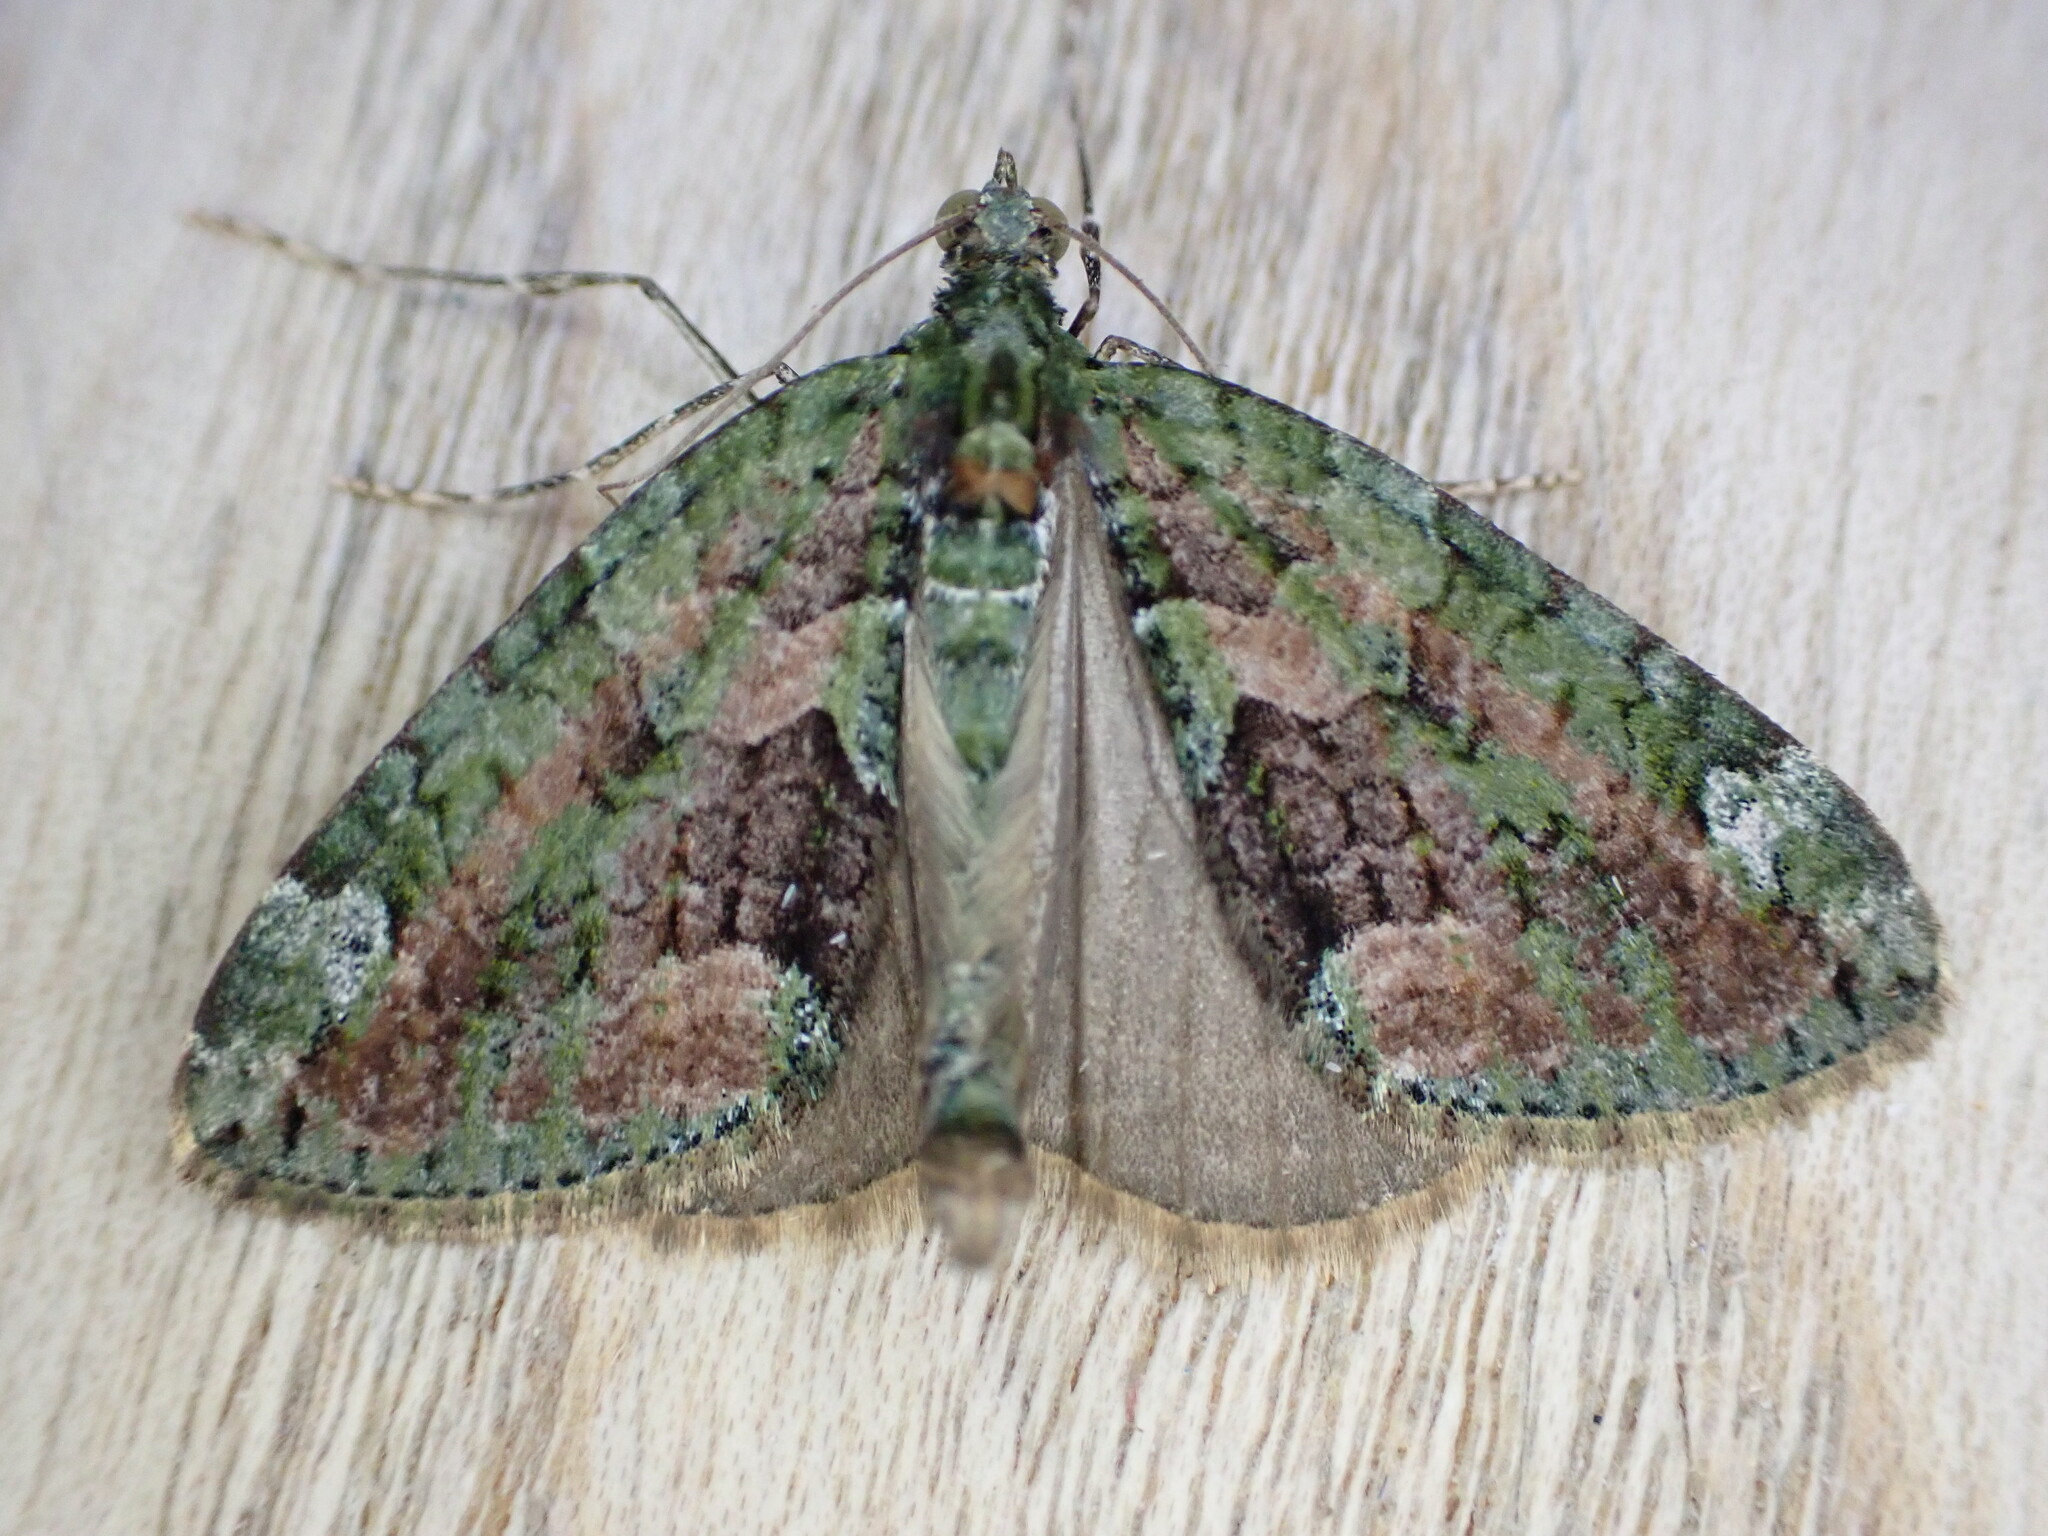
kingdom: Animalia
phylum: Arthropoda
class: Insecta
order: Lepidoptera
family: Geometridae
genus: Chloroclysta
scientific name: Chloroclysta siterata
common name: Red-green carpet
